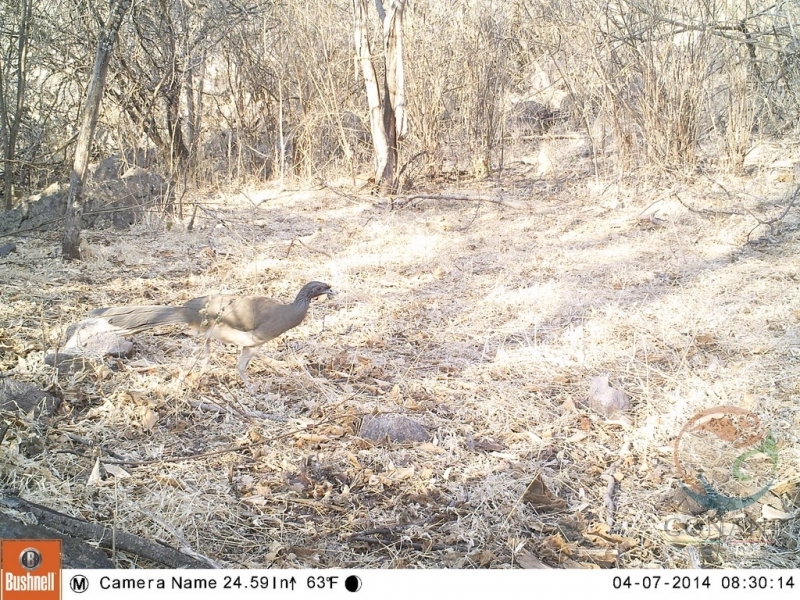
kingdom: Animalia
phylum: Chordata
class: Aves
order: Galliformes
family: Cracidae
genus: Ortalis
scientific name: Ortalis poliocephala
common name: West mexican chachalaca
